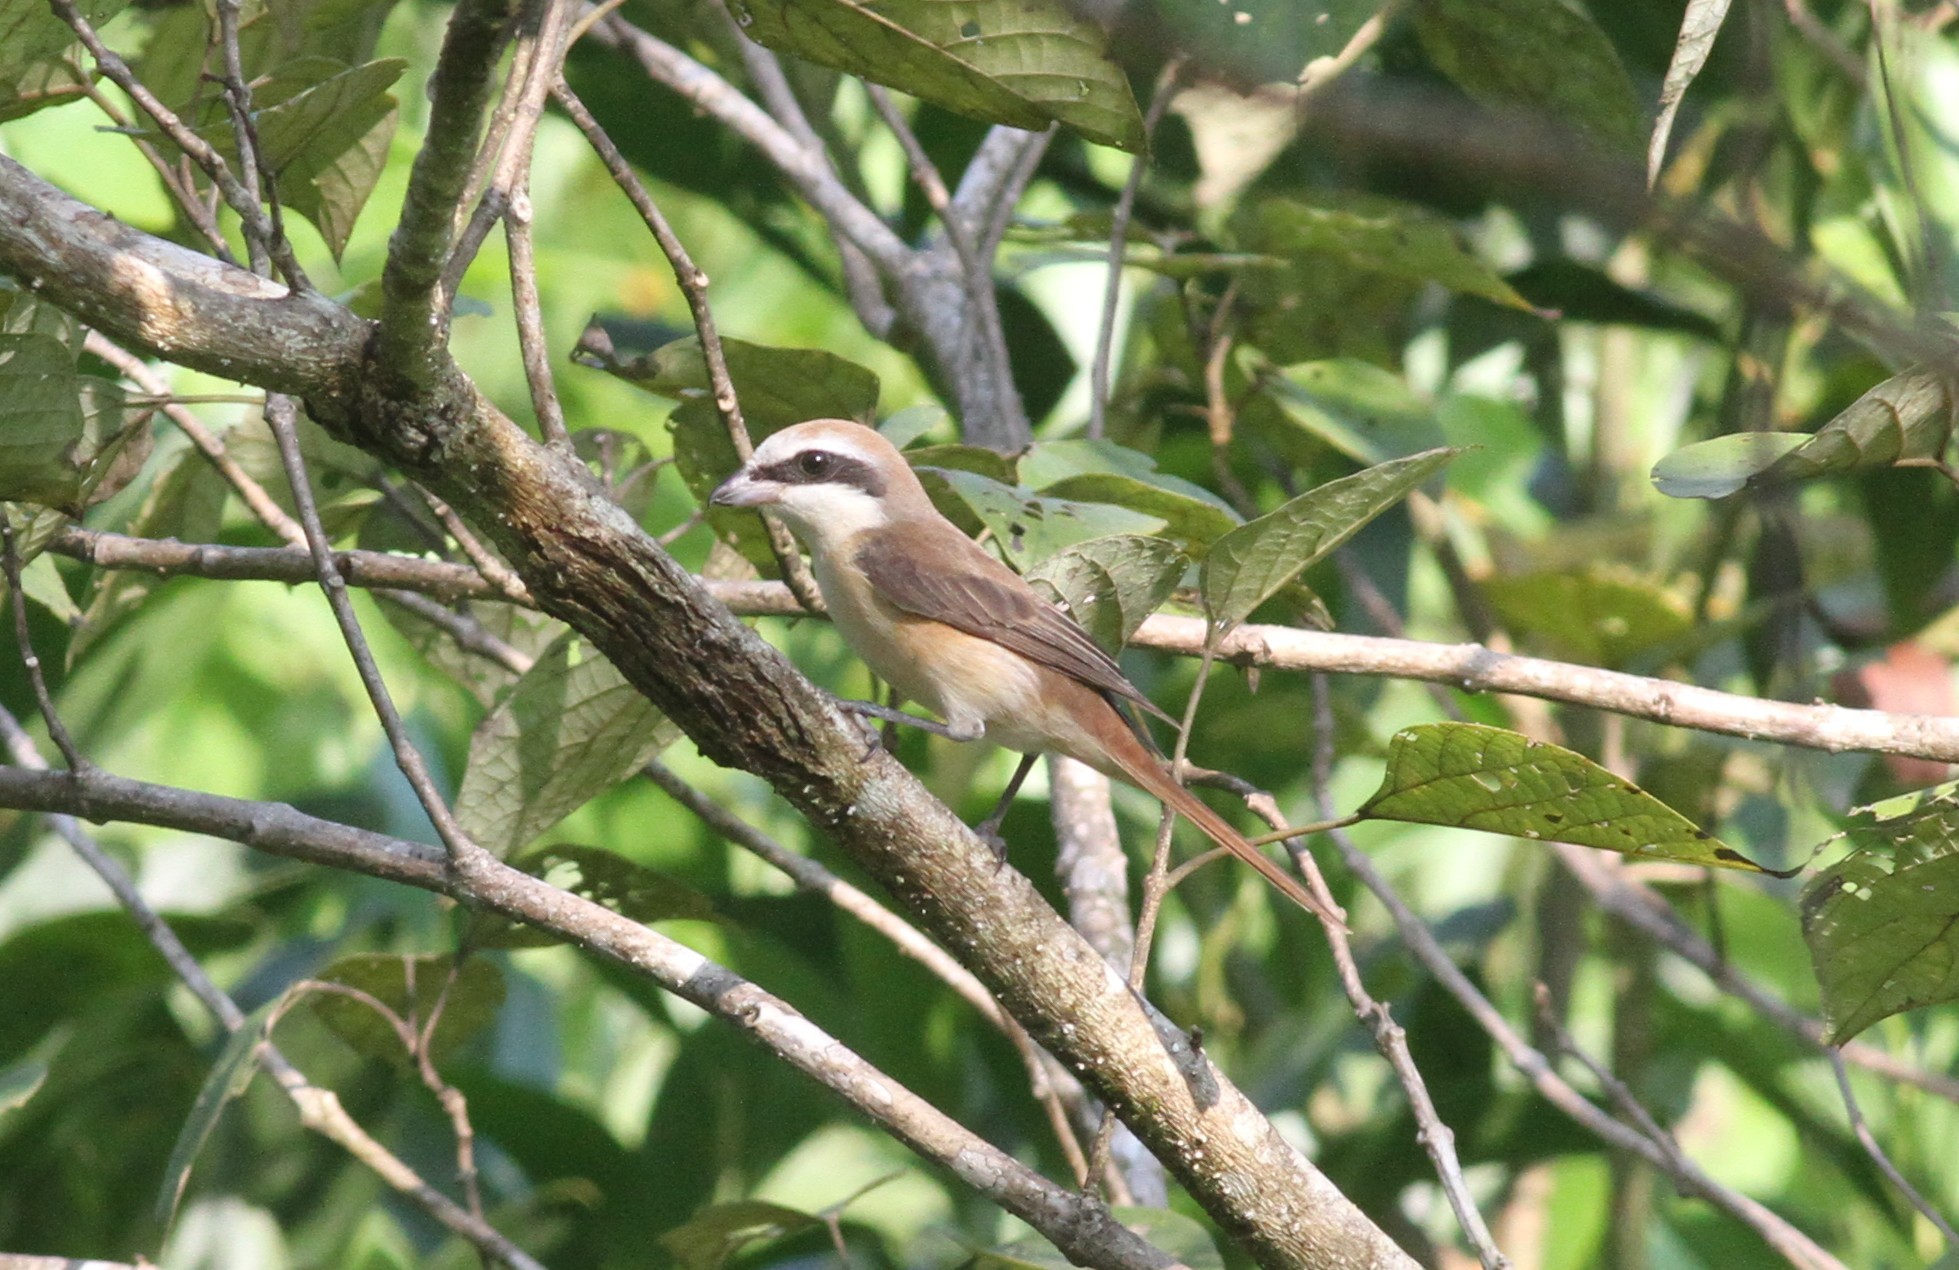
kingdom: Animalia
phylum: Chordata
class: Aves
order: Passeriformes
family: Laniidae
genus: Lanius
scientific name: Lanius cristatus
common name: Brown shrike
